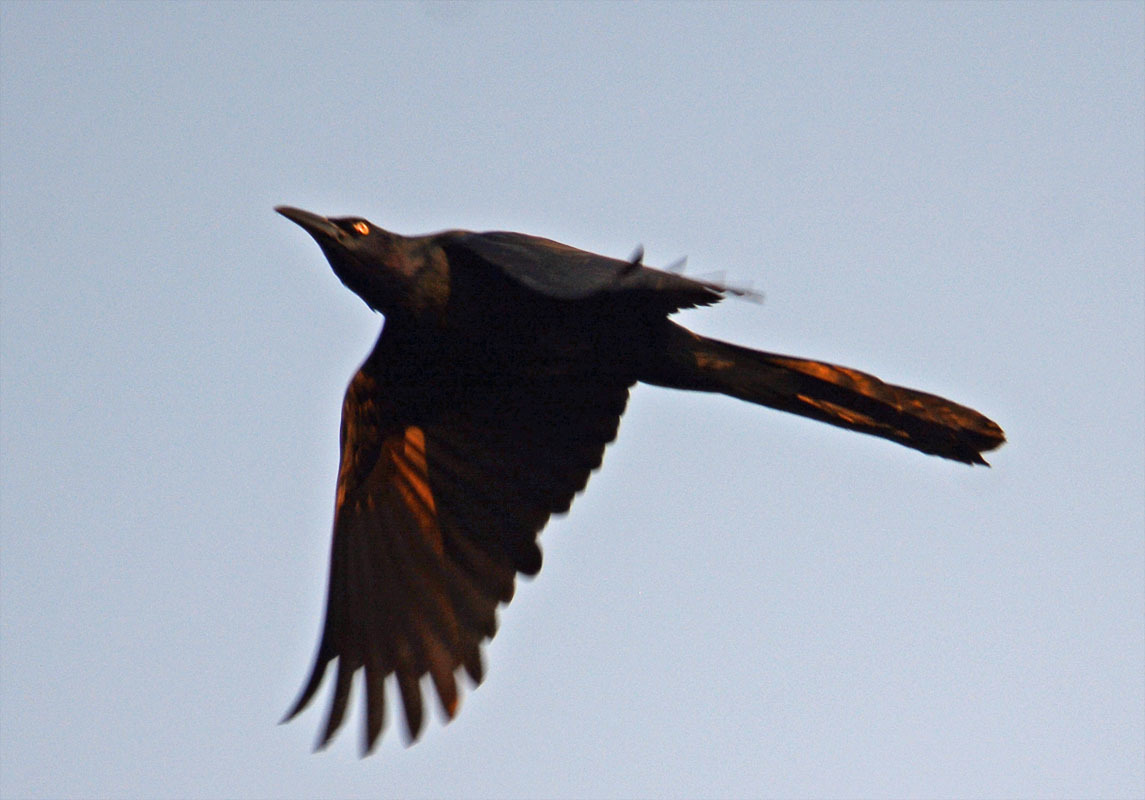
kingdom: Animalia
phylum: Chordata
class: Aves
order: Passeriformes
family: Icteridae
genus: Quiscalus
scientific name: Quiscalus mexicanus
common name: Great-tailed grackle
